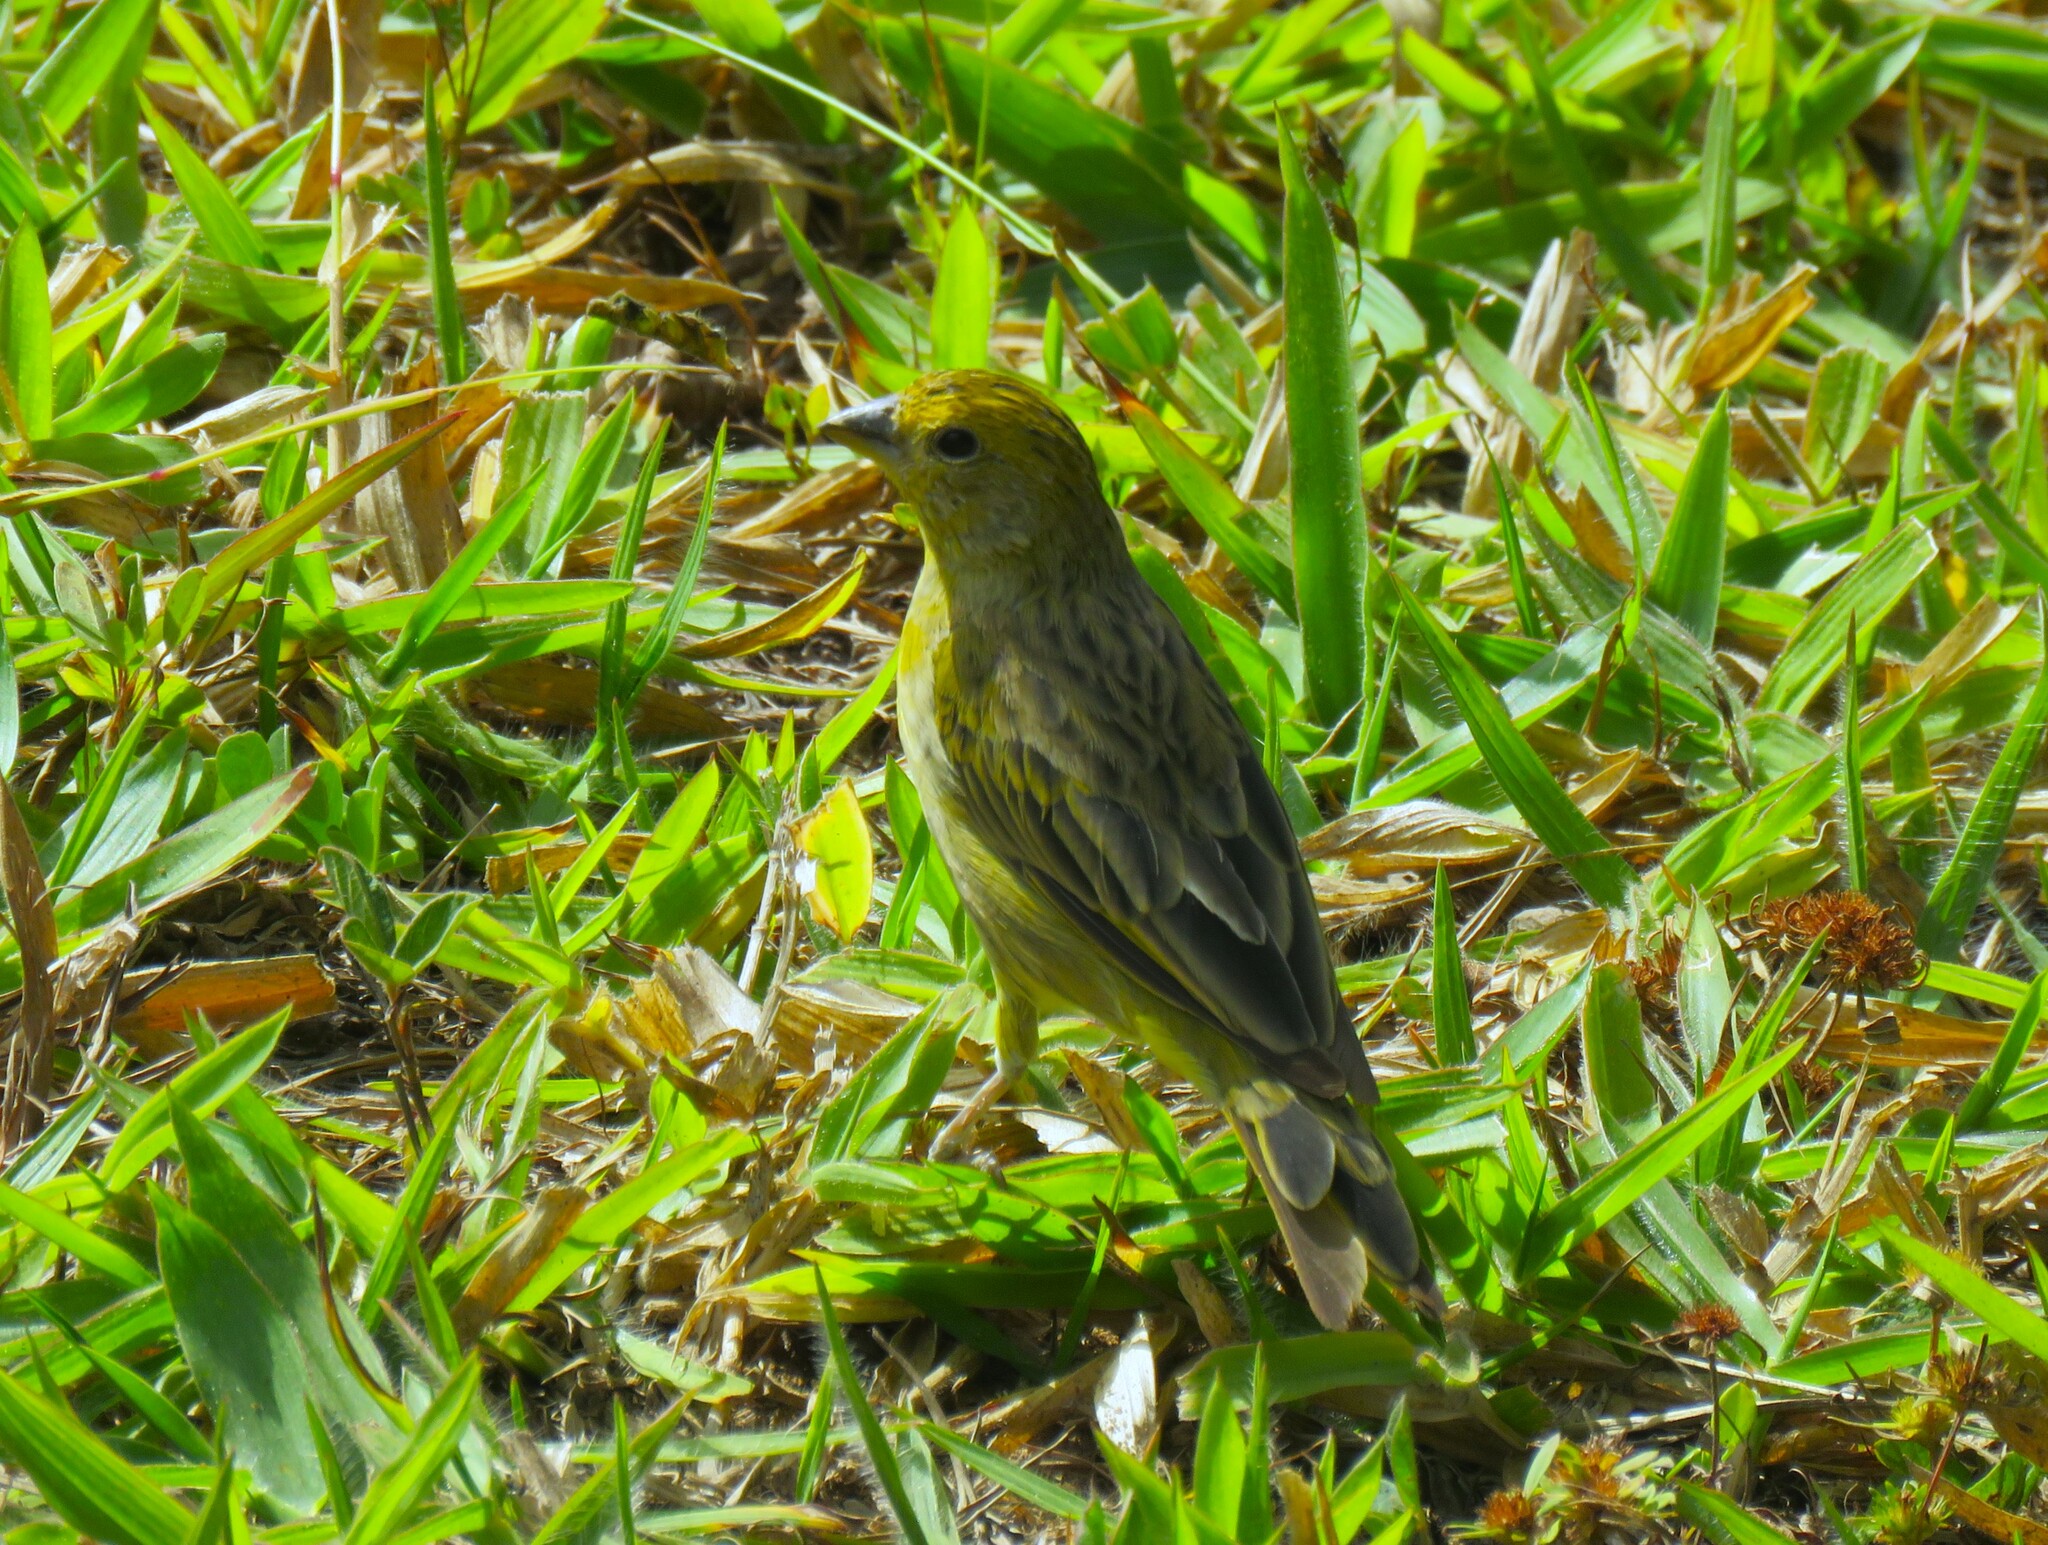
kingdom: Animalia
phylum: Chordata
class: Aves
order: Passeriformes
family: Thraupidae
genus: Sicalis
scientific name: Sicalis flaveola
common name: Saffron finch
